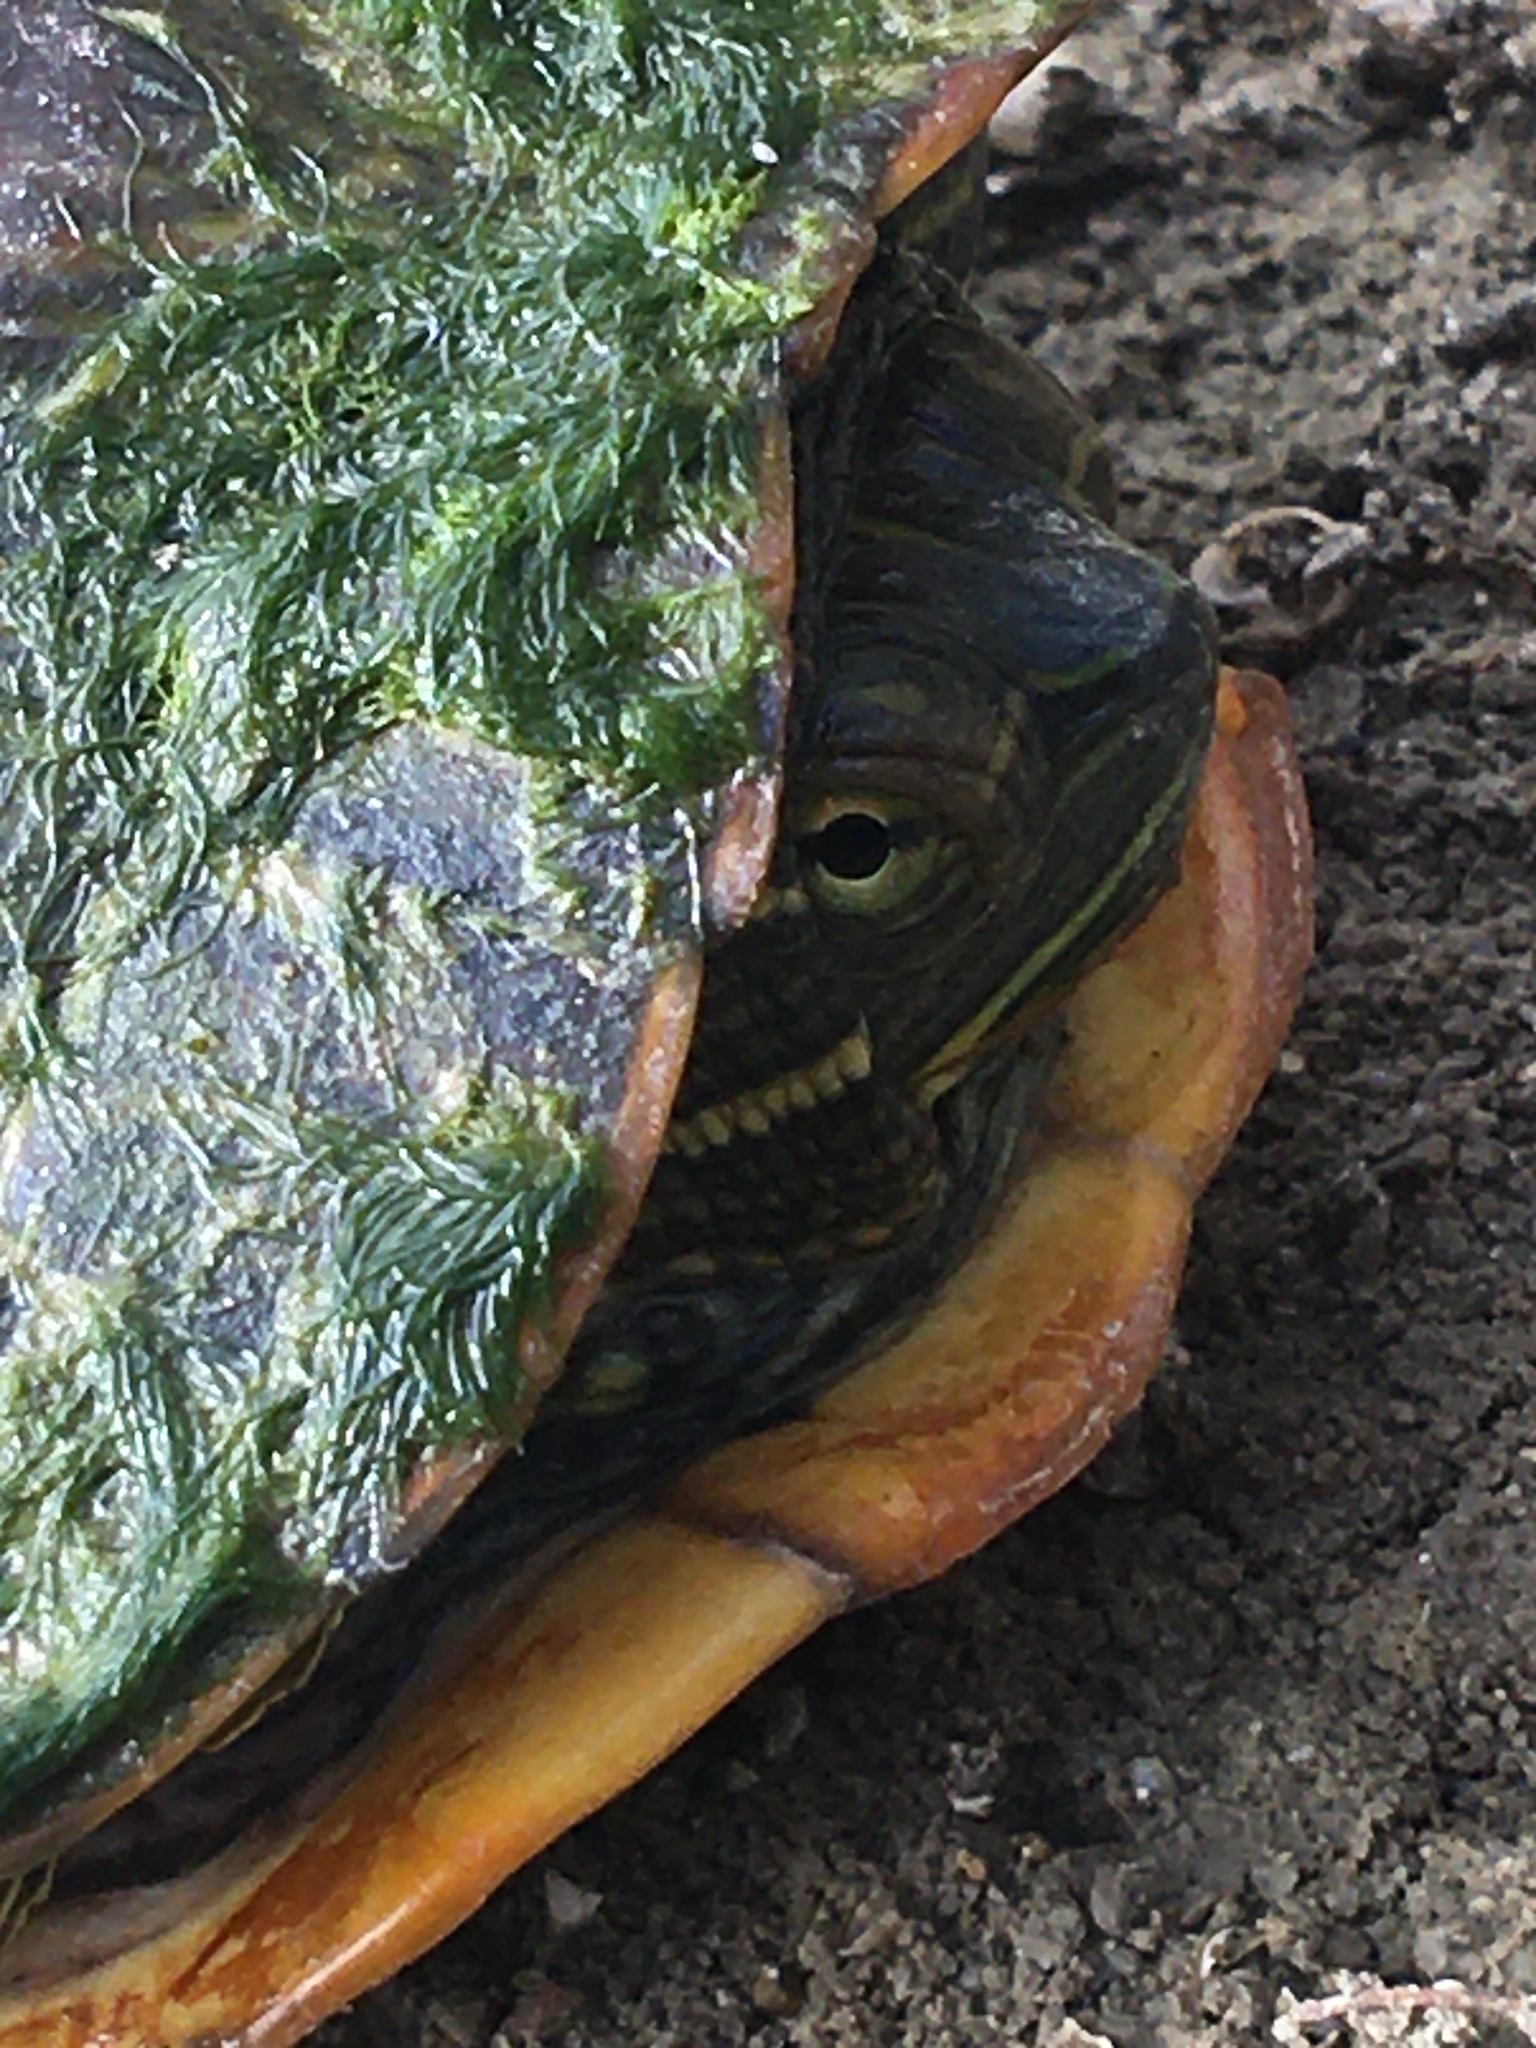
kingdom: Animalia
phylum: Chordata
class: Testudines
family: Emydidae
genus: Trachemys
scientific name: Trachemys scripta
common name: Slider
